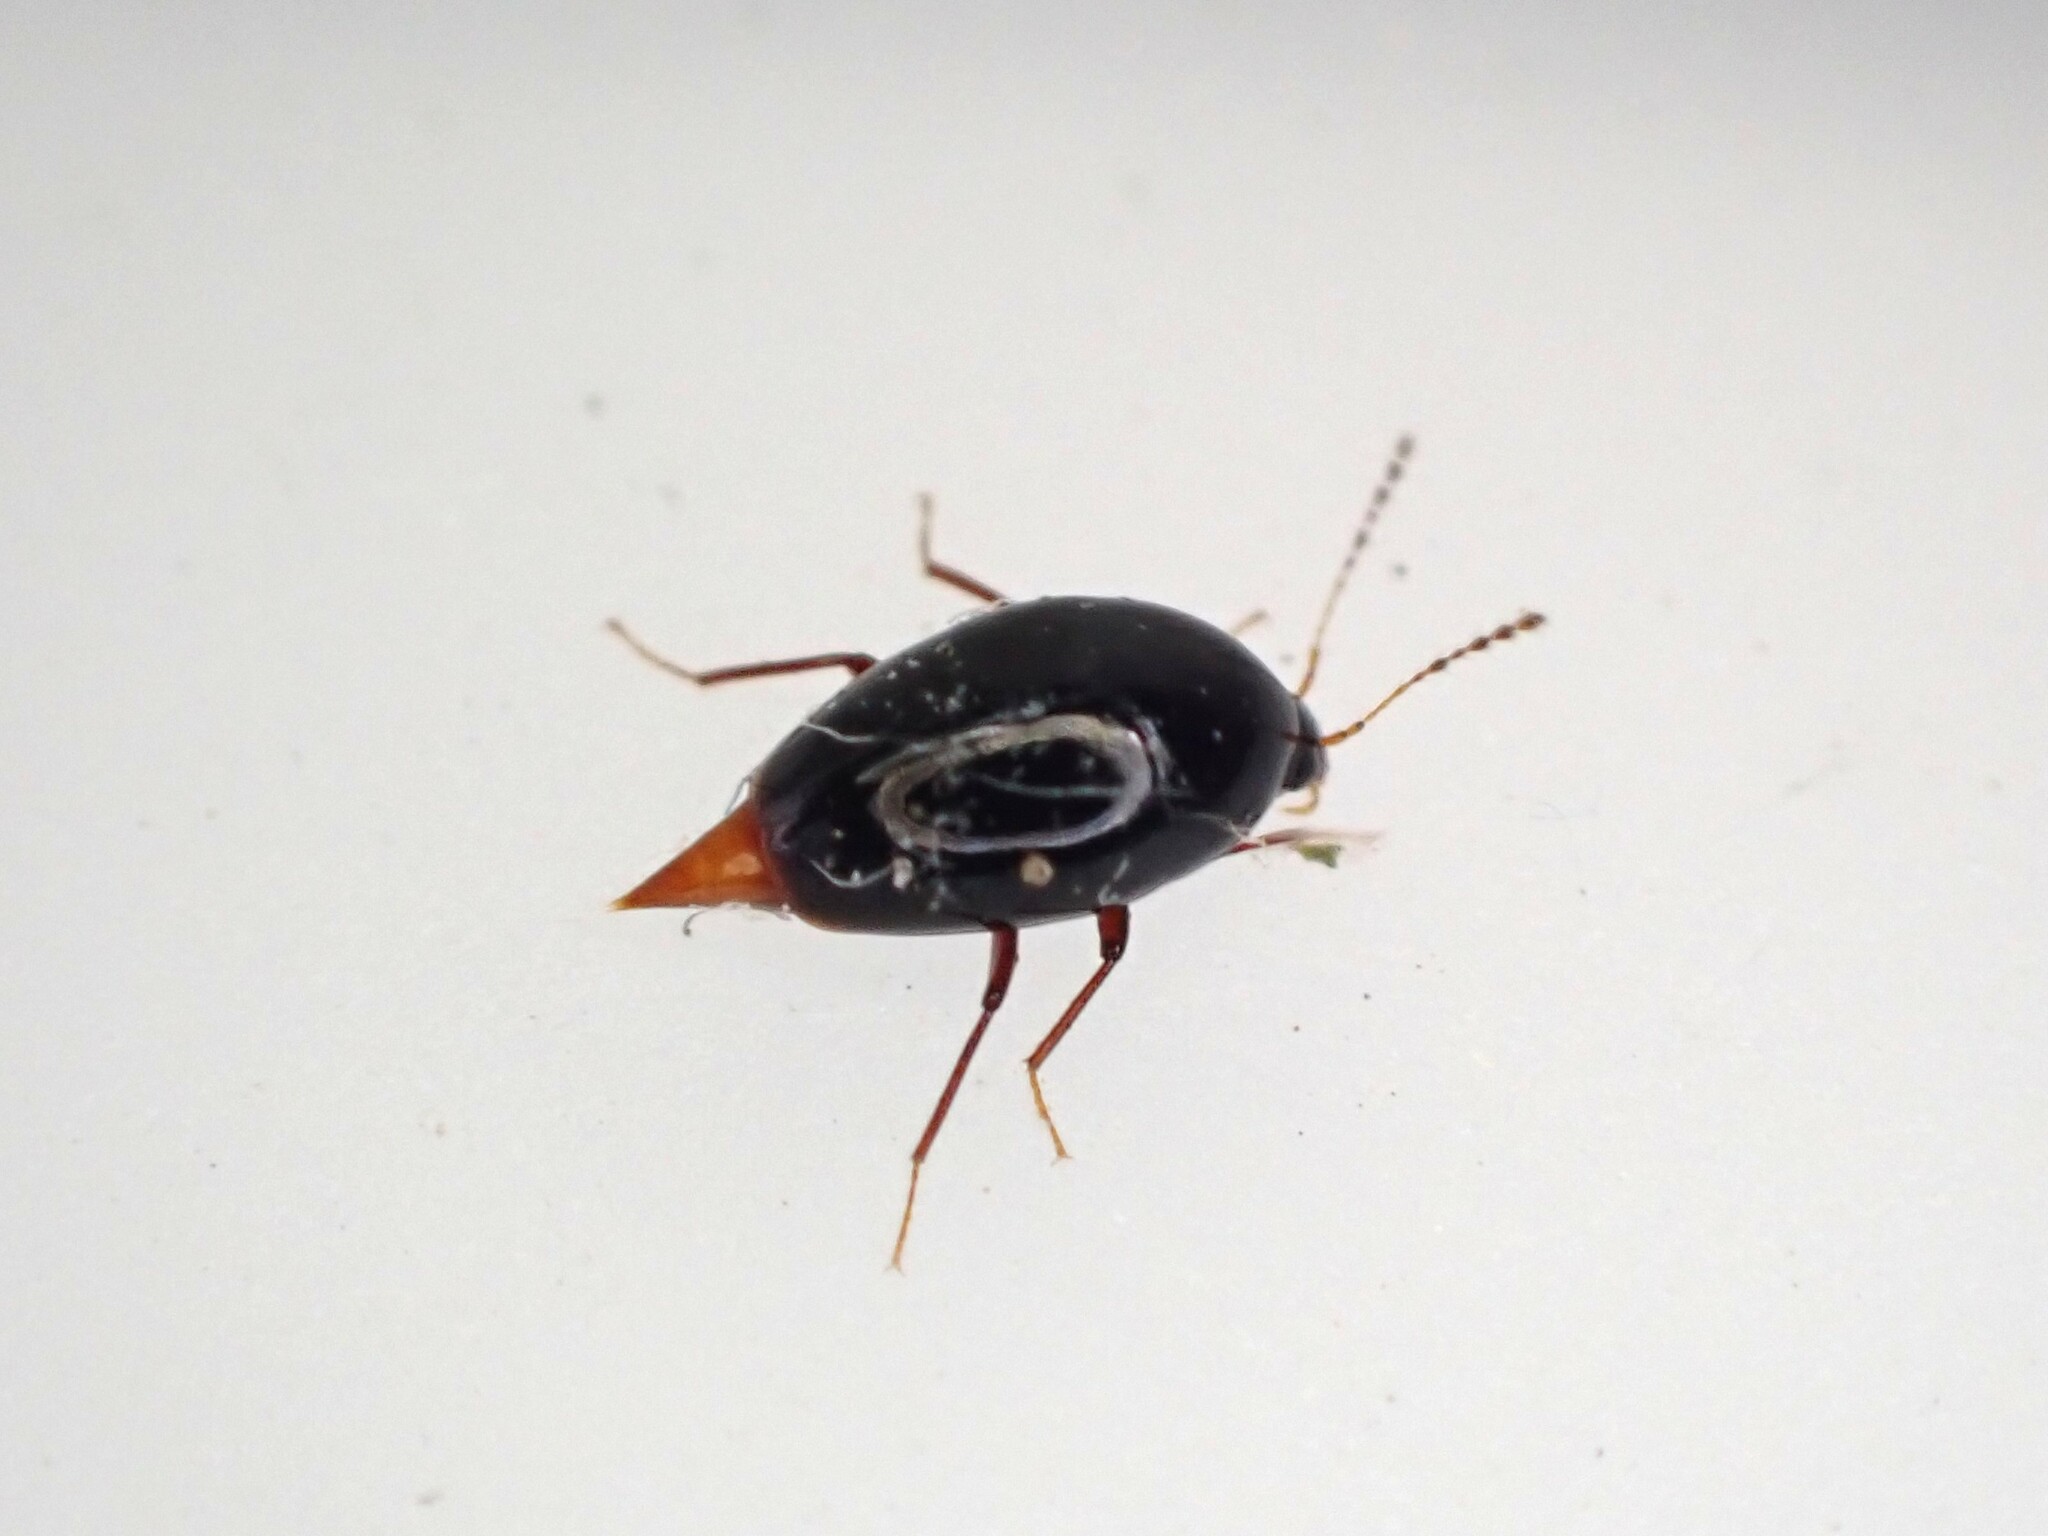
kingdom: Animalia
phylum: Arthropoda
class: Insecta
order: Coleoptera
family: Staphylinidae
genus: Brachynopus
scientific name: Brachynopus scutellaris
